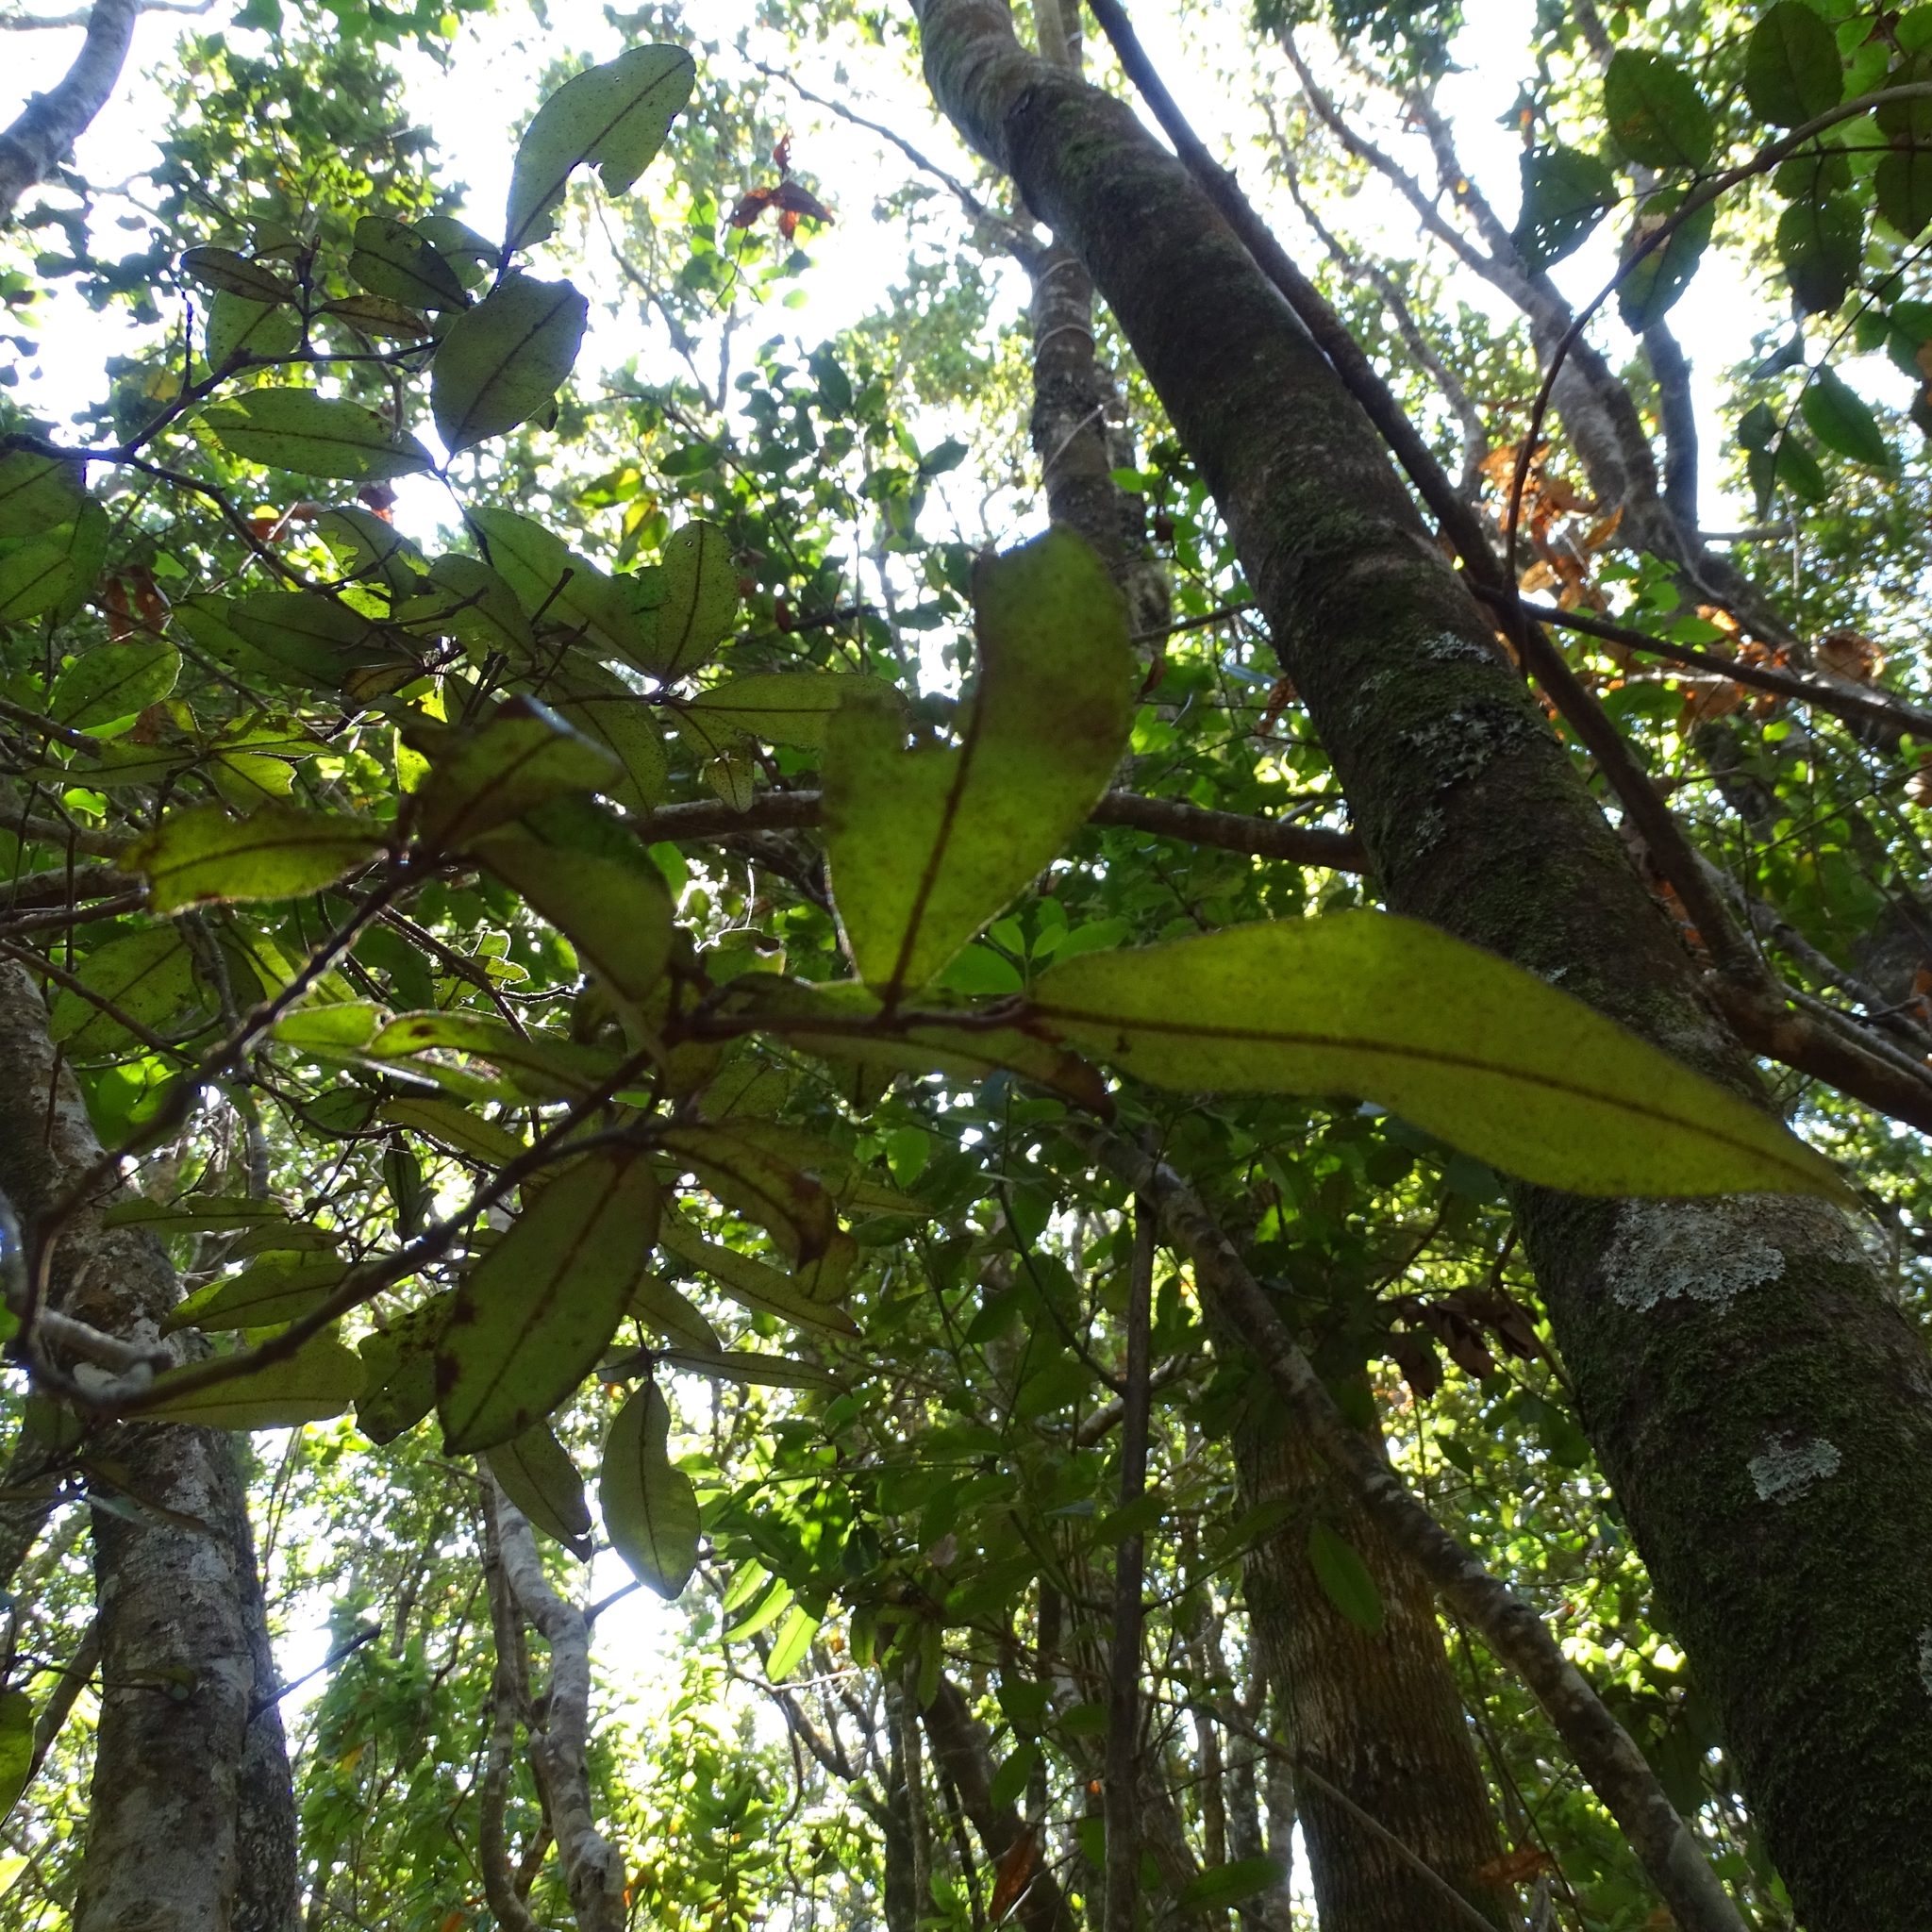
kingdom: Plantae
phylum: Tracheophyta
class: Magnoliopsida
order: Berberidopsidales
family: Aextoxicaceae
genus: Aextoxicon
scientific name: Aextoxicon punctatum
